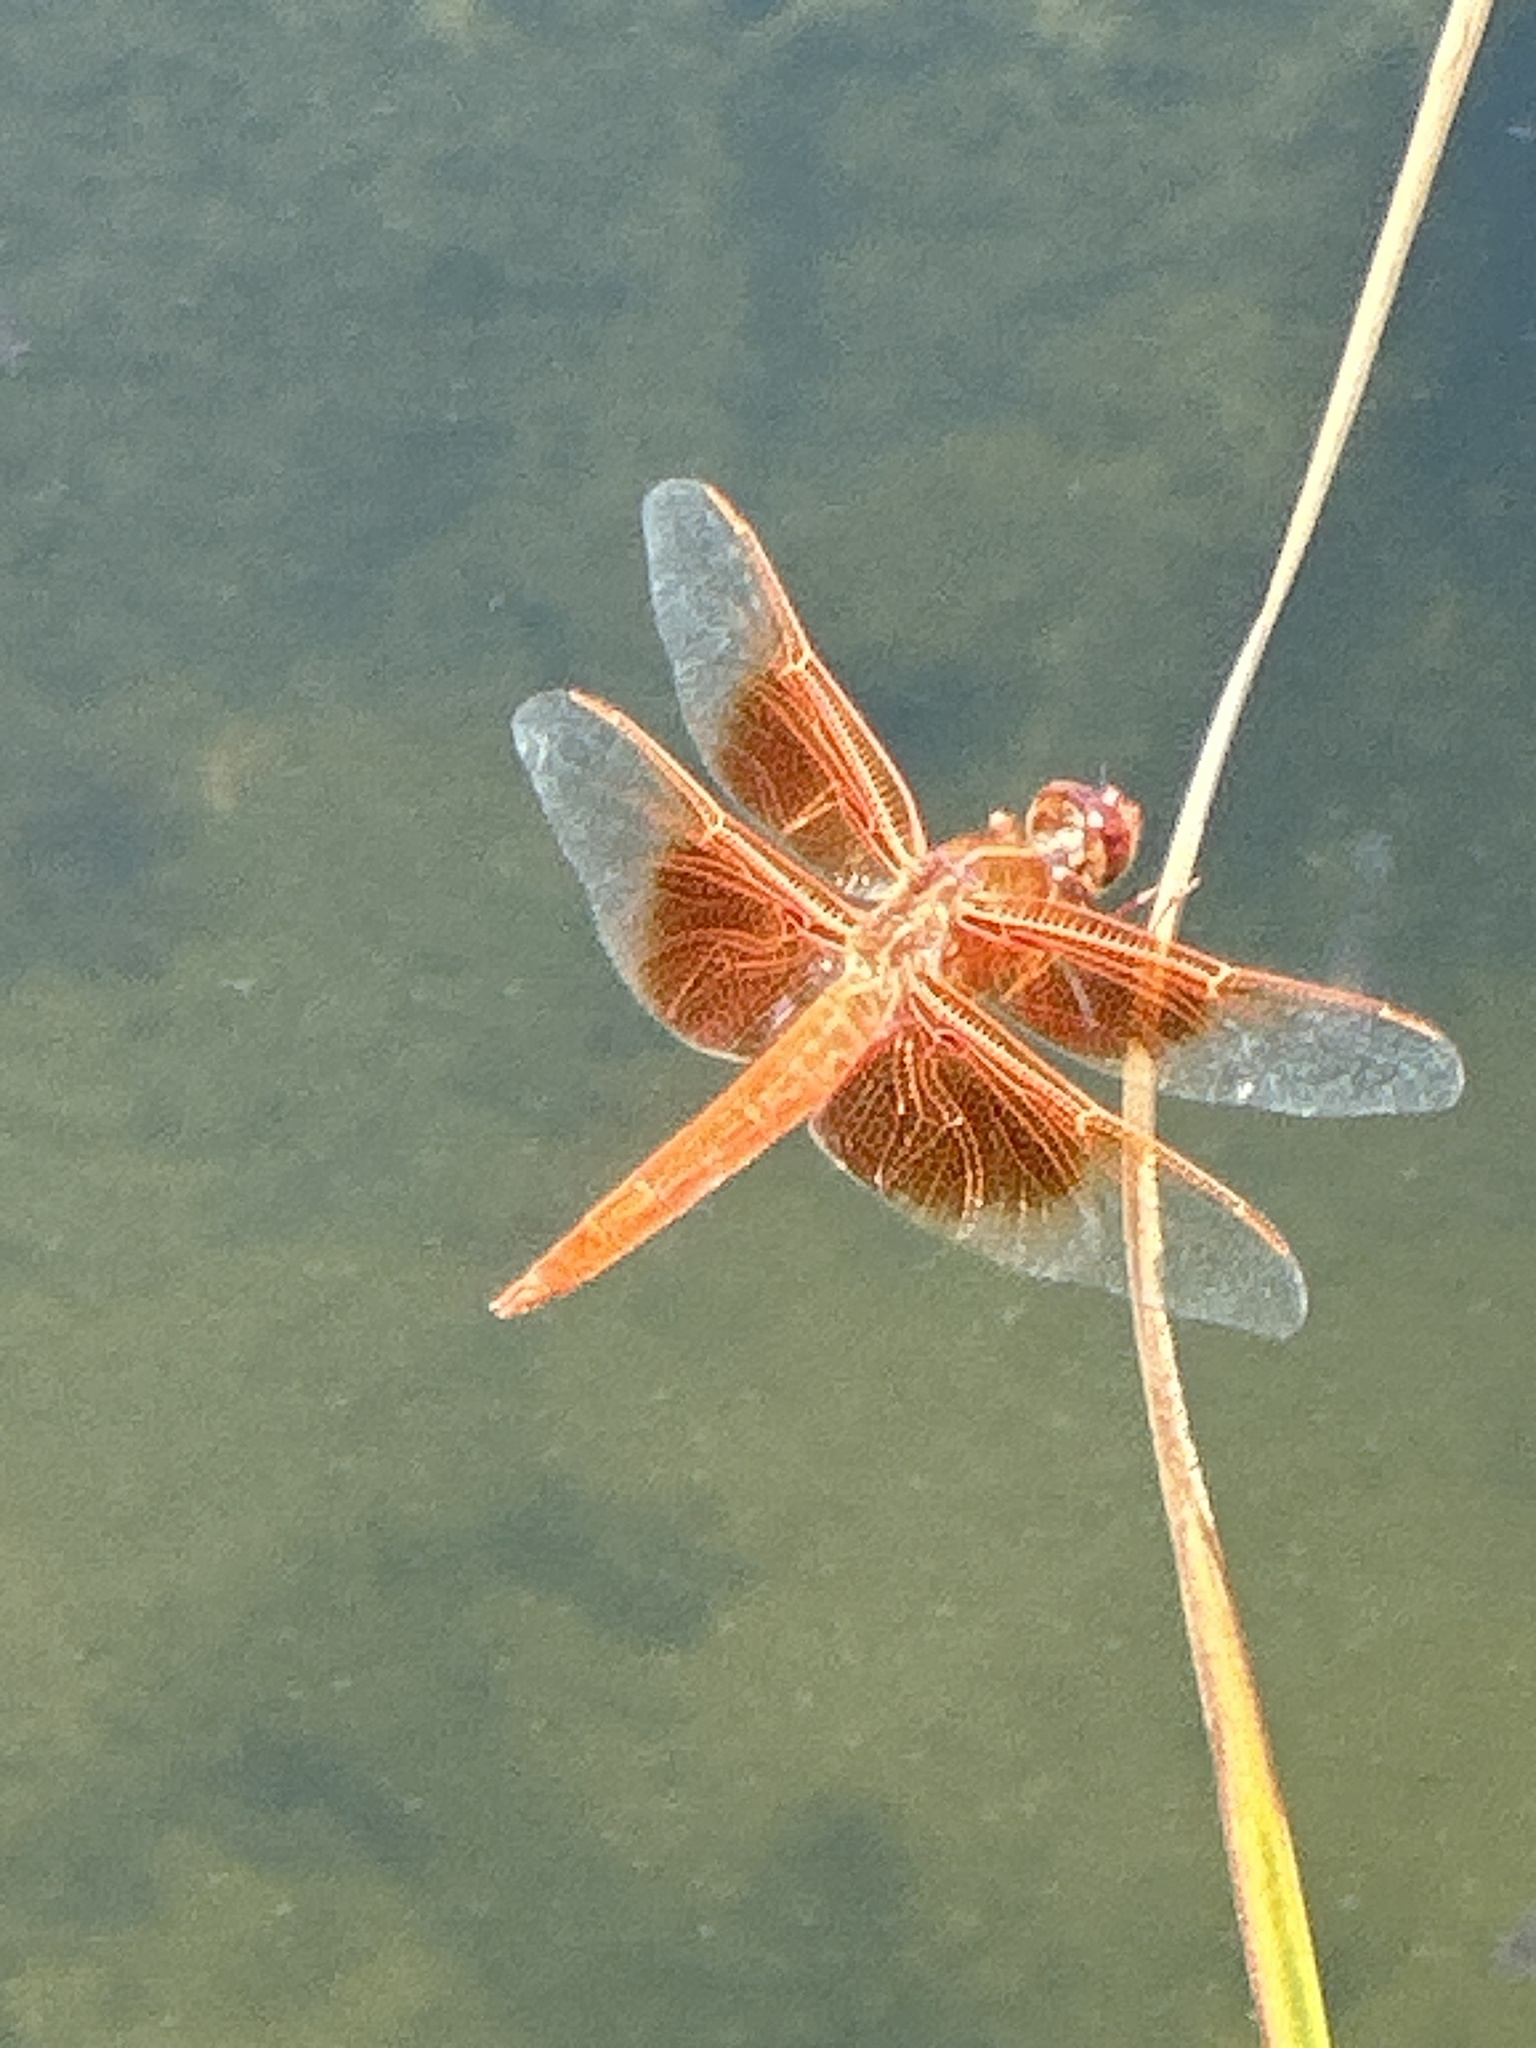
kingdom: Animalia
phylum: Arthropoda
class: Insecta
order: Odonata
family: Libellulidae
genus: Libellula
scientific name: Libellula saturata
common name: Flame skimmer
